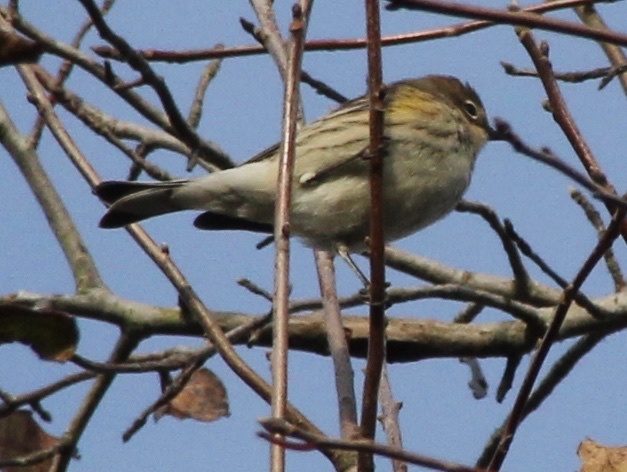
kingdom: Animalia
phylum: Chordata
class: Aves
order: Passeriformes
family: Parulidae
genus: Setophaga
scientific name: Setophaga coronata
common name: Myrtle warbler
